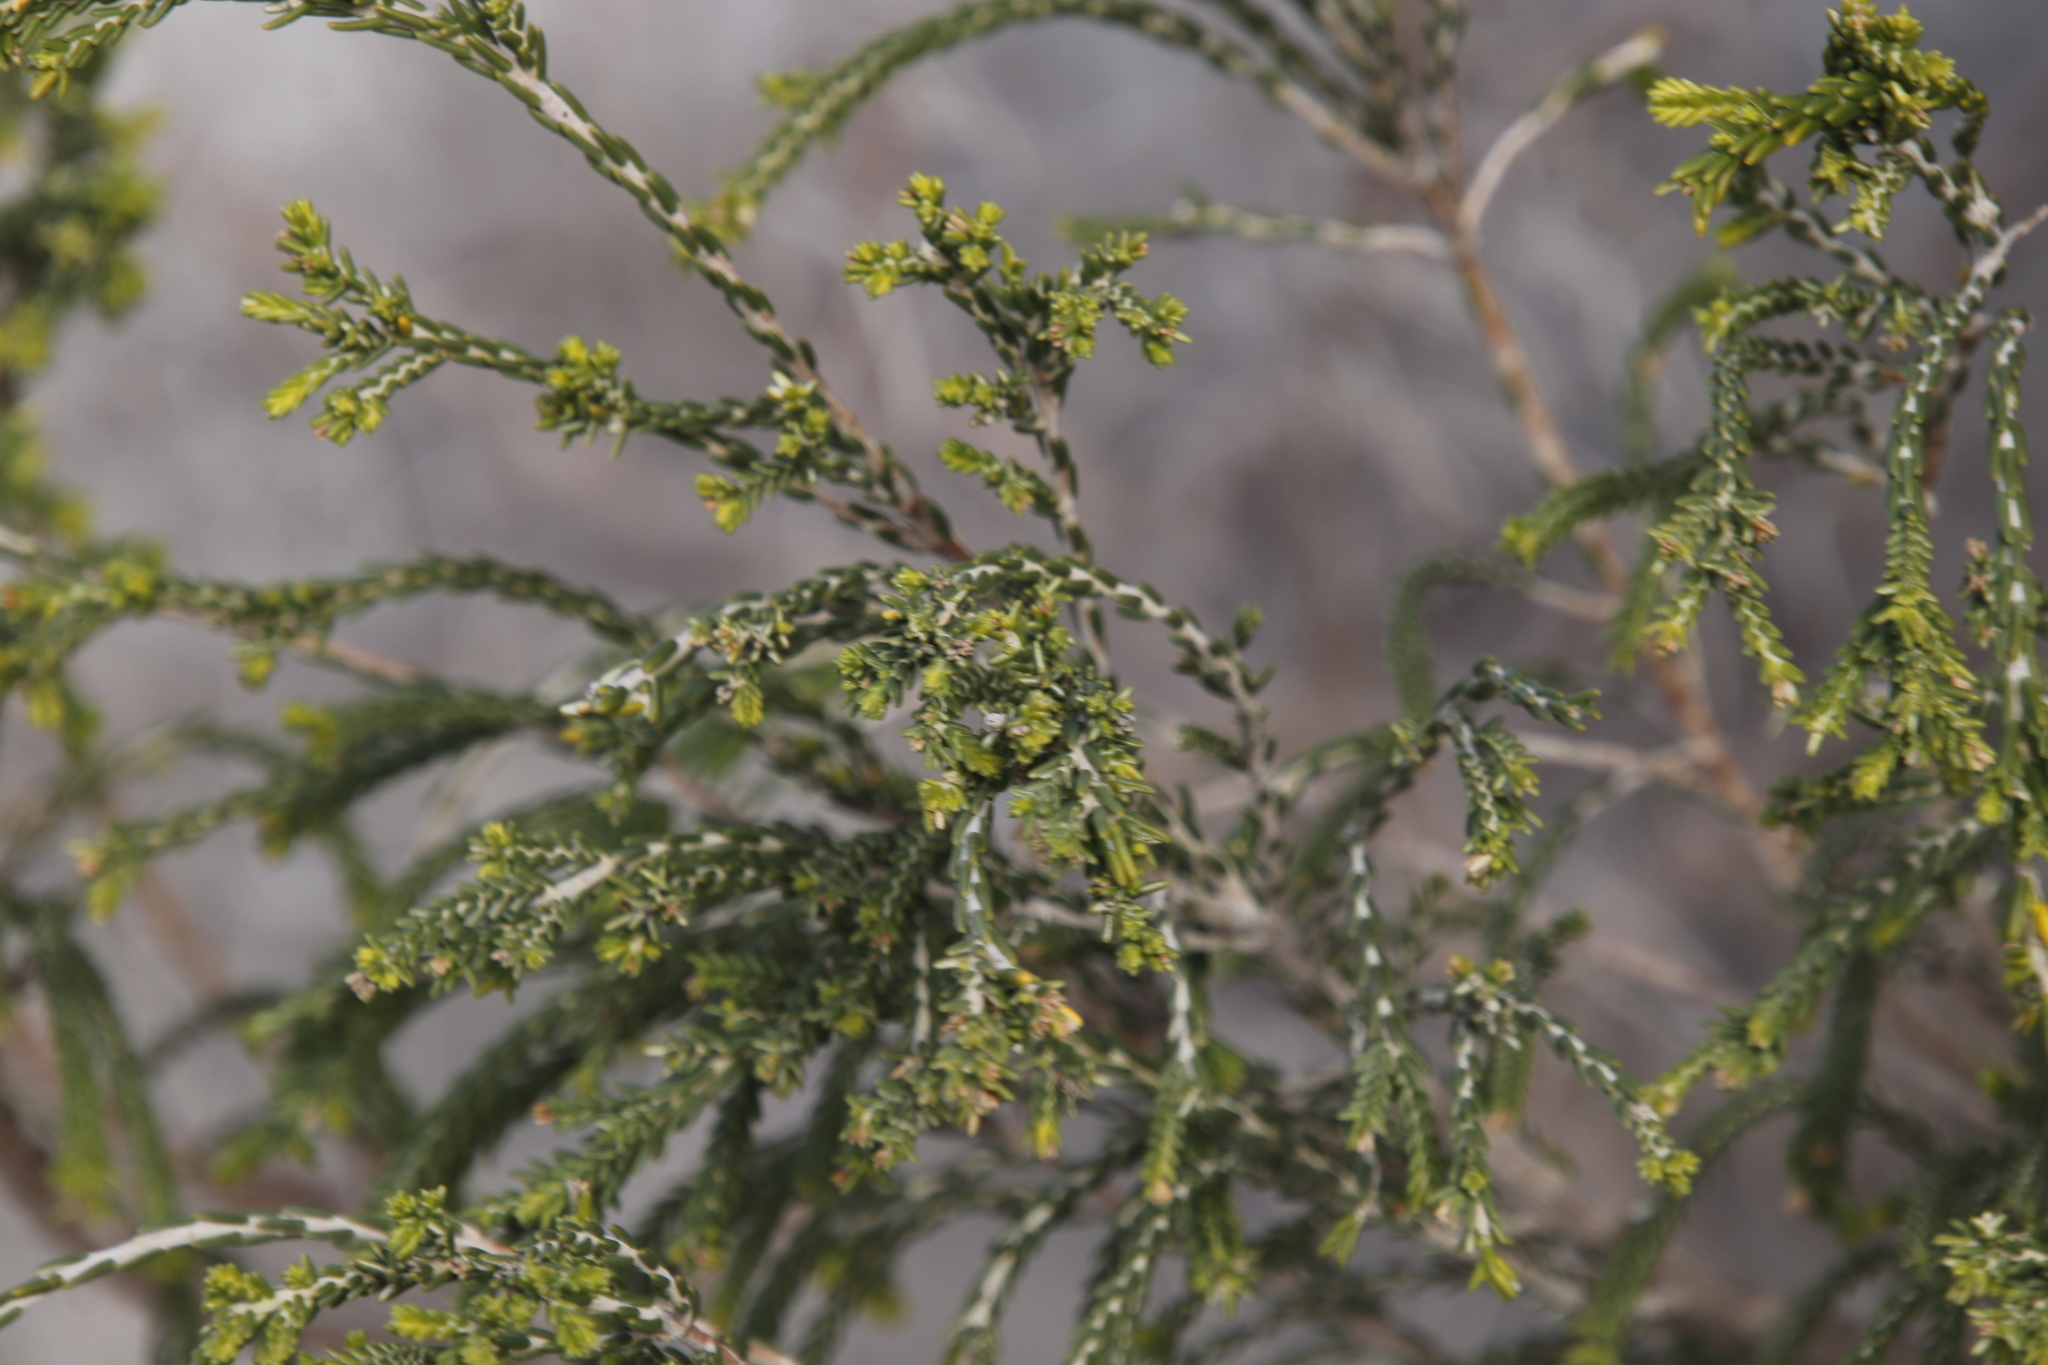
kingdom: Plantae
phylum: Tracheophyta
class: Magnoliopsida
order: Malvales
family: Thymelaeaceae
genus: Passerina
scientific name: Passerina ericoides
